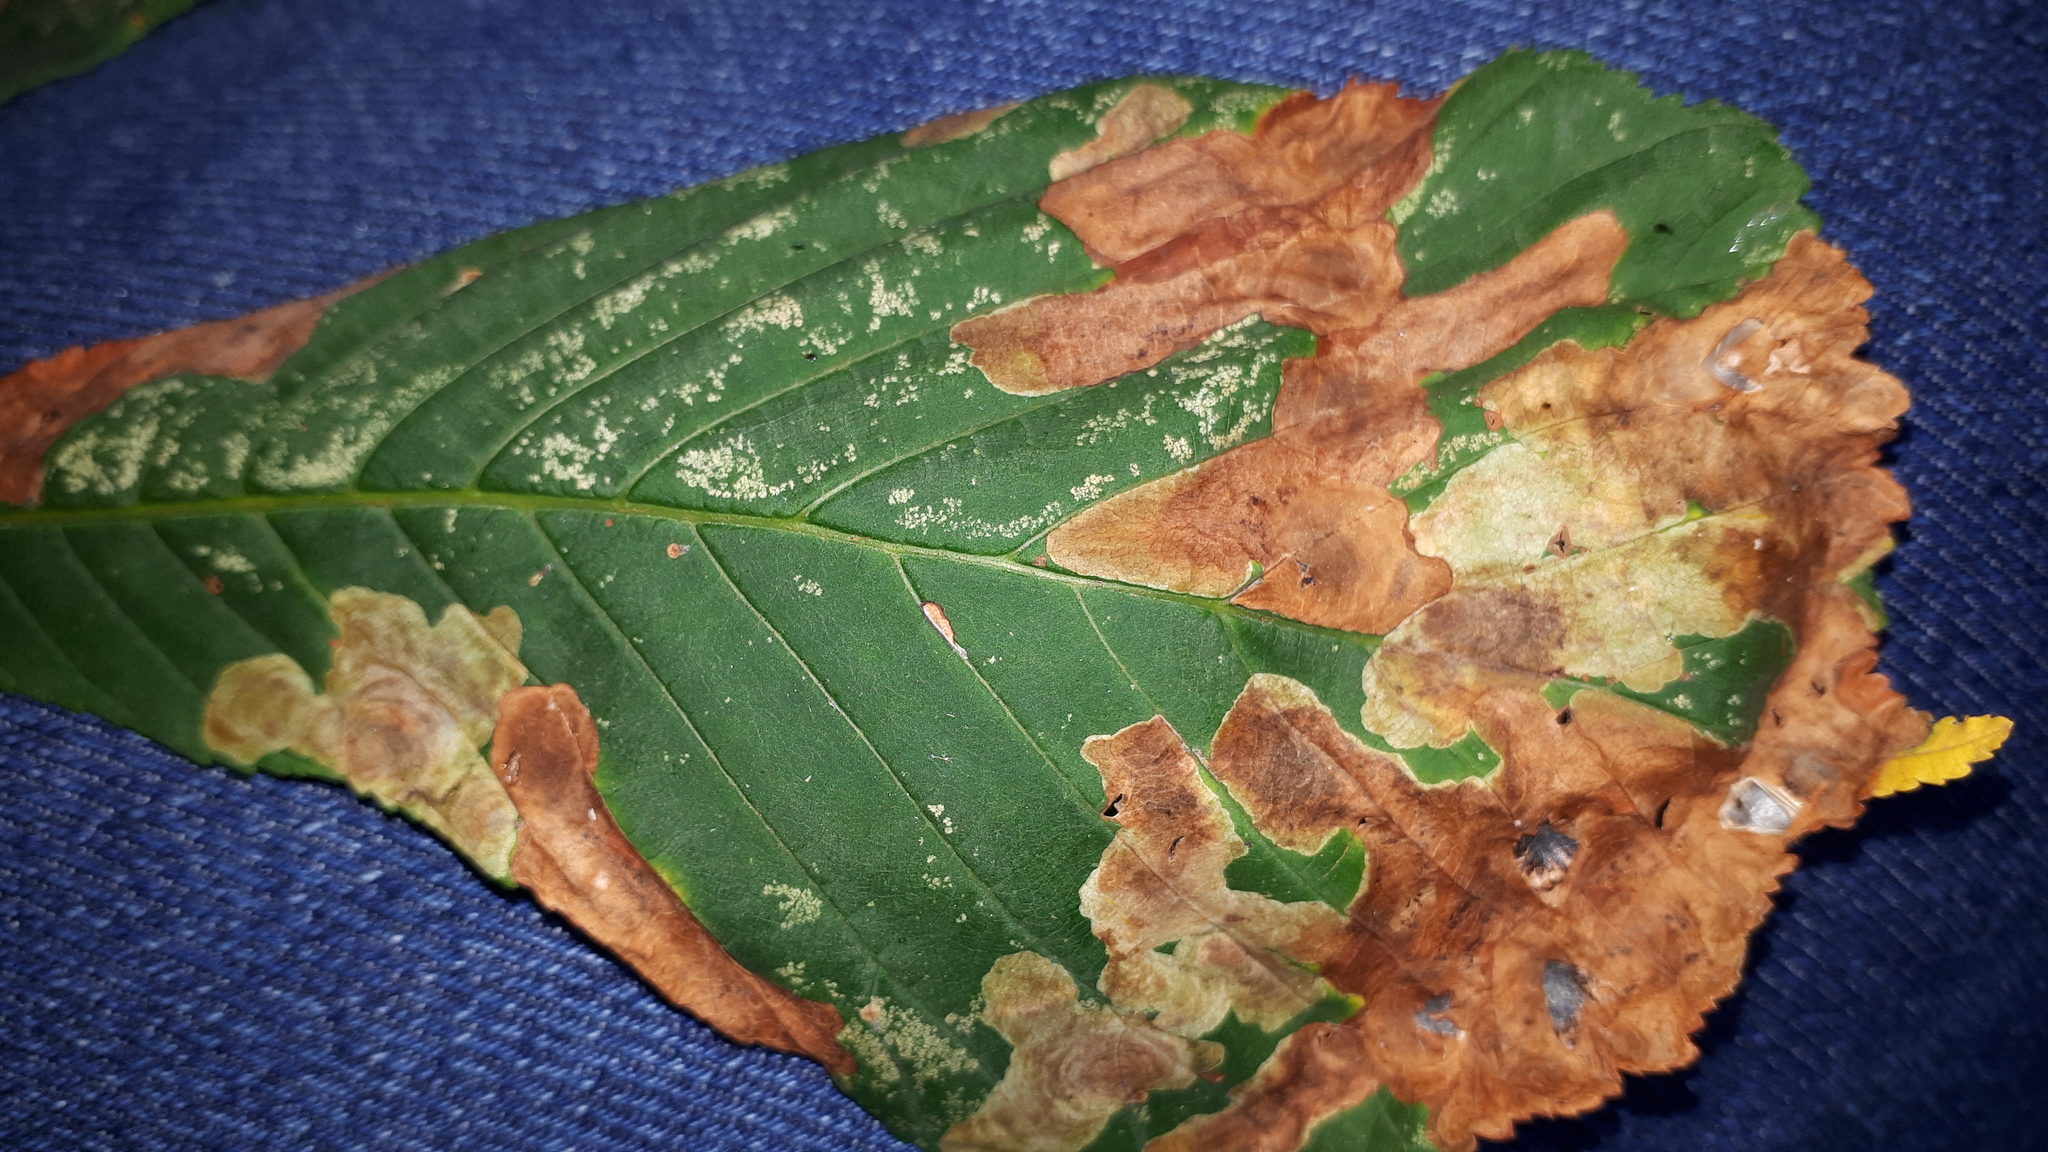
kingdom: Animalia
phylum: Arthropoda
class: Insecta
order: Lepidoptera
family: Gracillariidae
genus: Cameraria
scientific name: Cameraria ohridella
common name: Horse-chestnut leaf-miner
